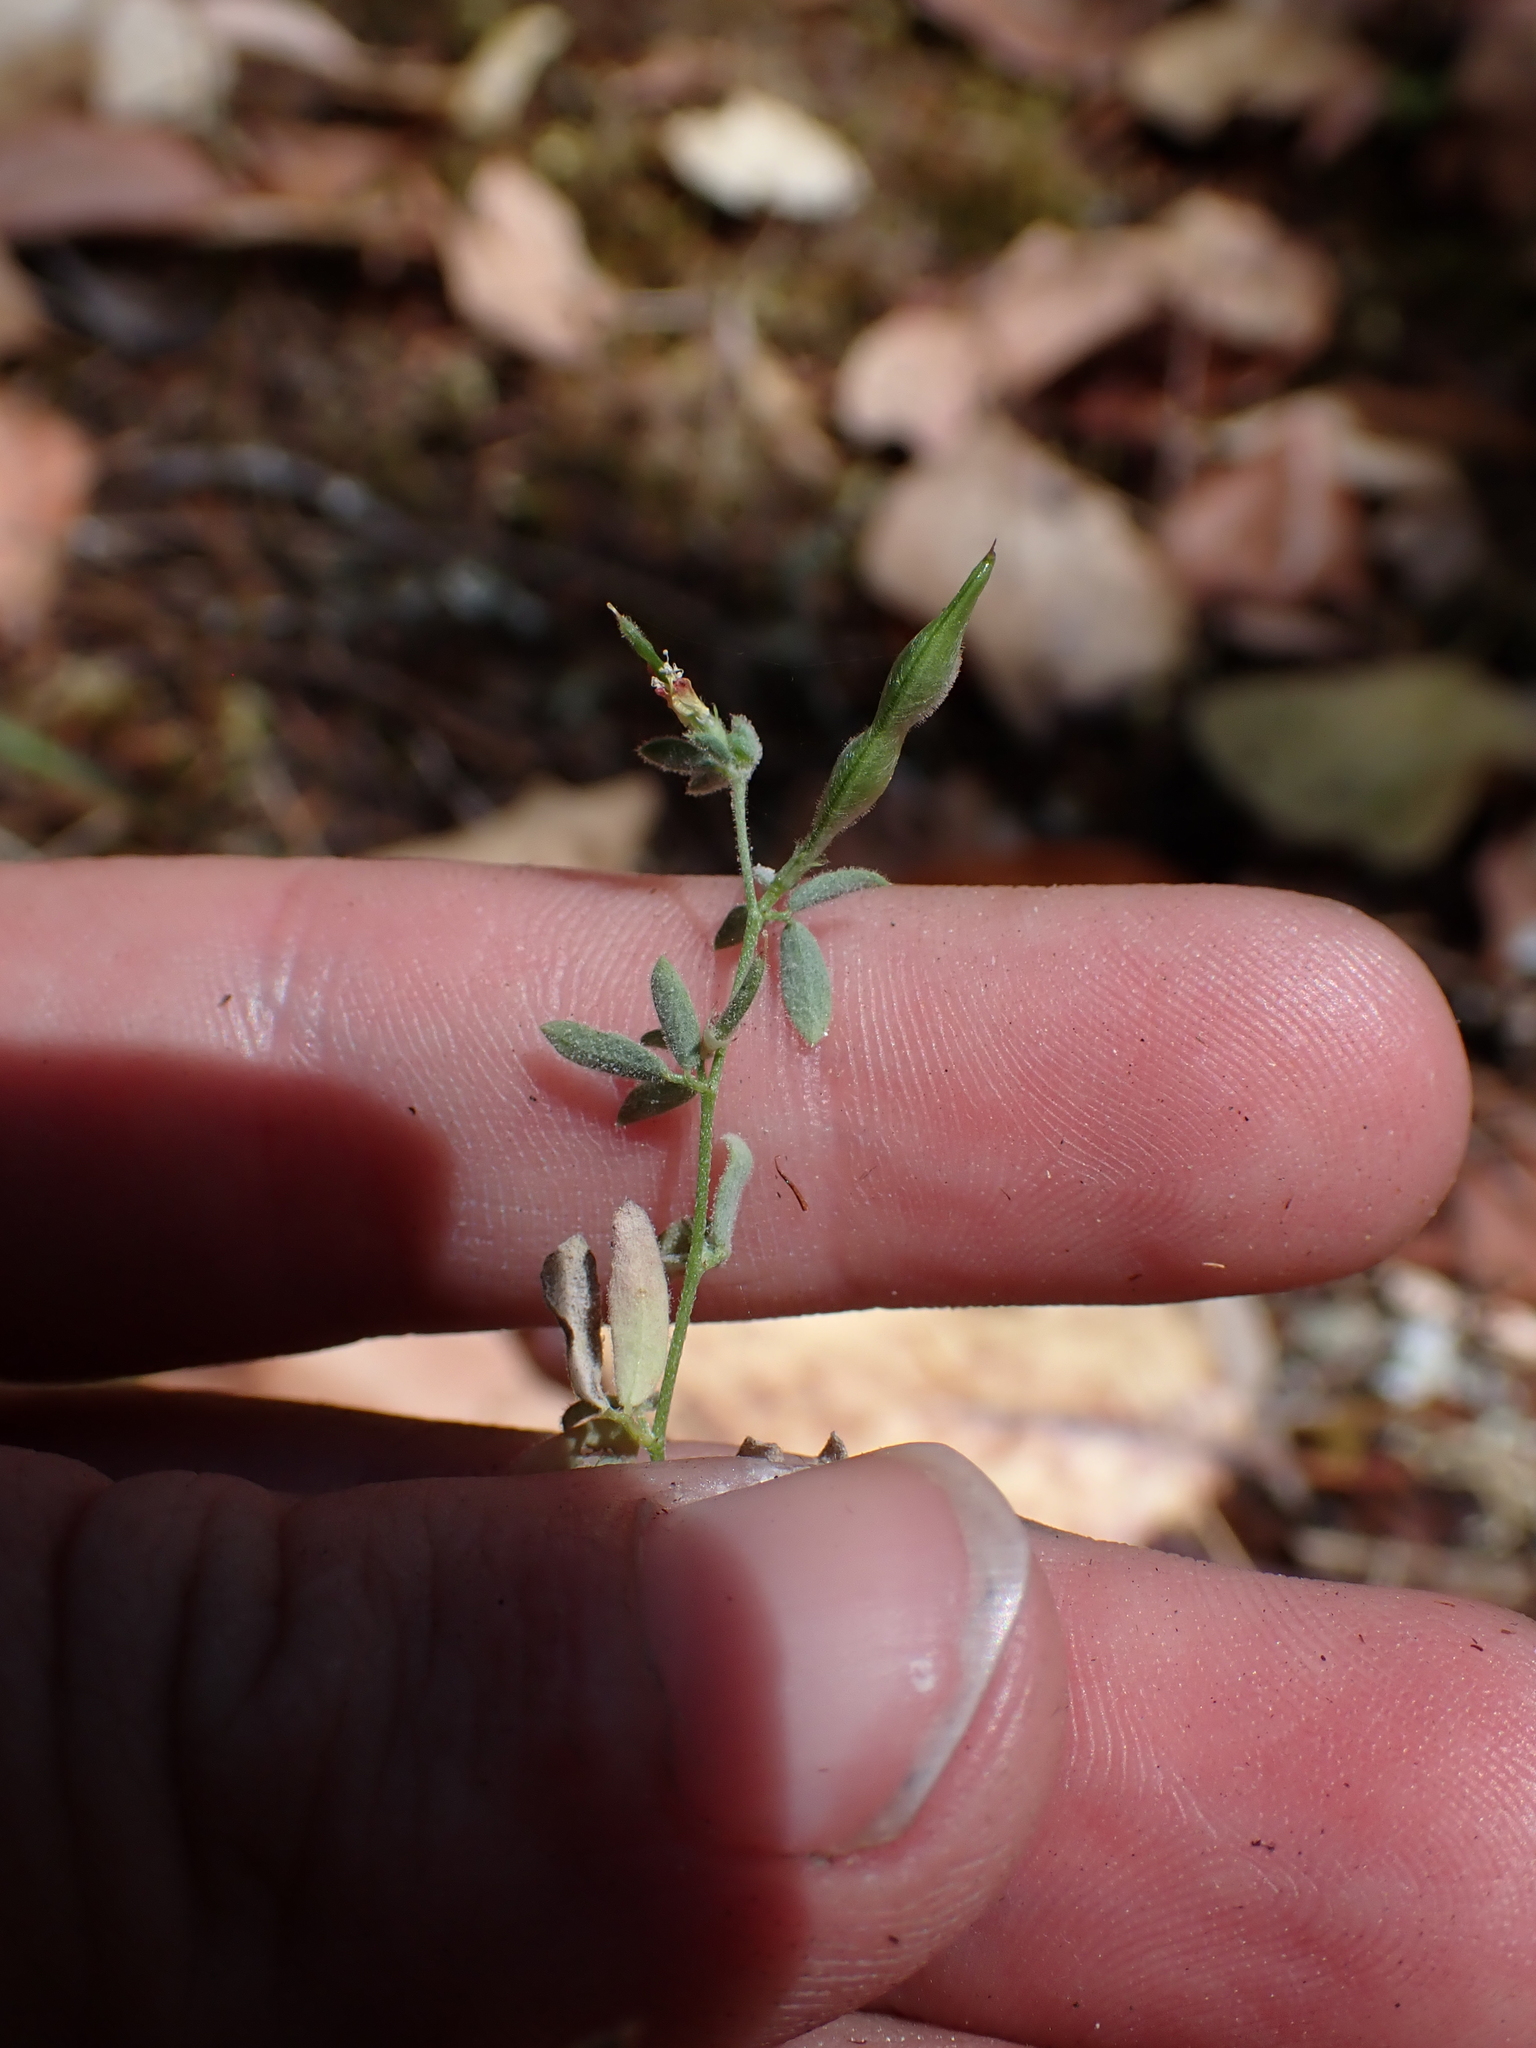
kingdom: Plantae
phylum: Tracheophyta
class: Magnoliopsida
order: Fabales
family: Fabaceae
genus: Cytisus
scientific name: Cytisus scoparius
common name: Scotch broom
